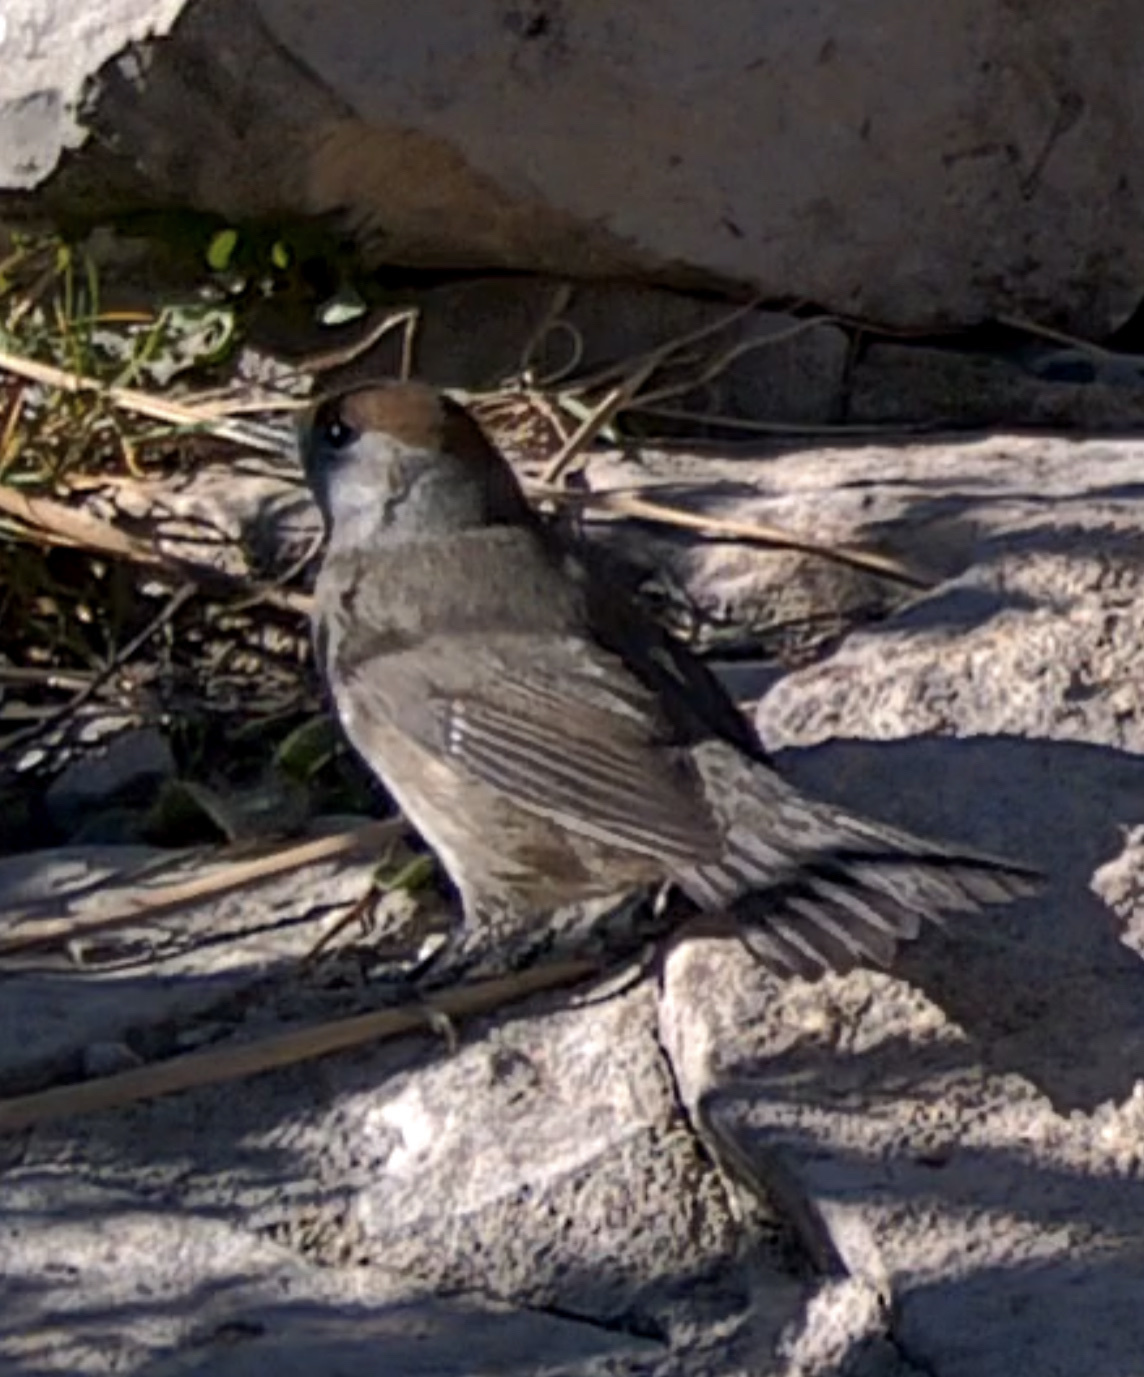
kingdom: Animalia
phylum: Chordata
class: Aves
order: Passeriformes
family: Sylviidae
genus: Sylvia
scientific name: Sylvia atricapilla
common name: Eurasian blackcap
